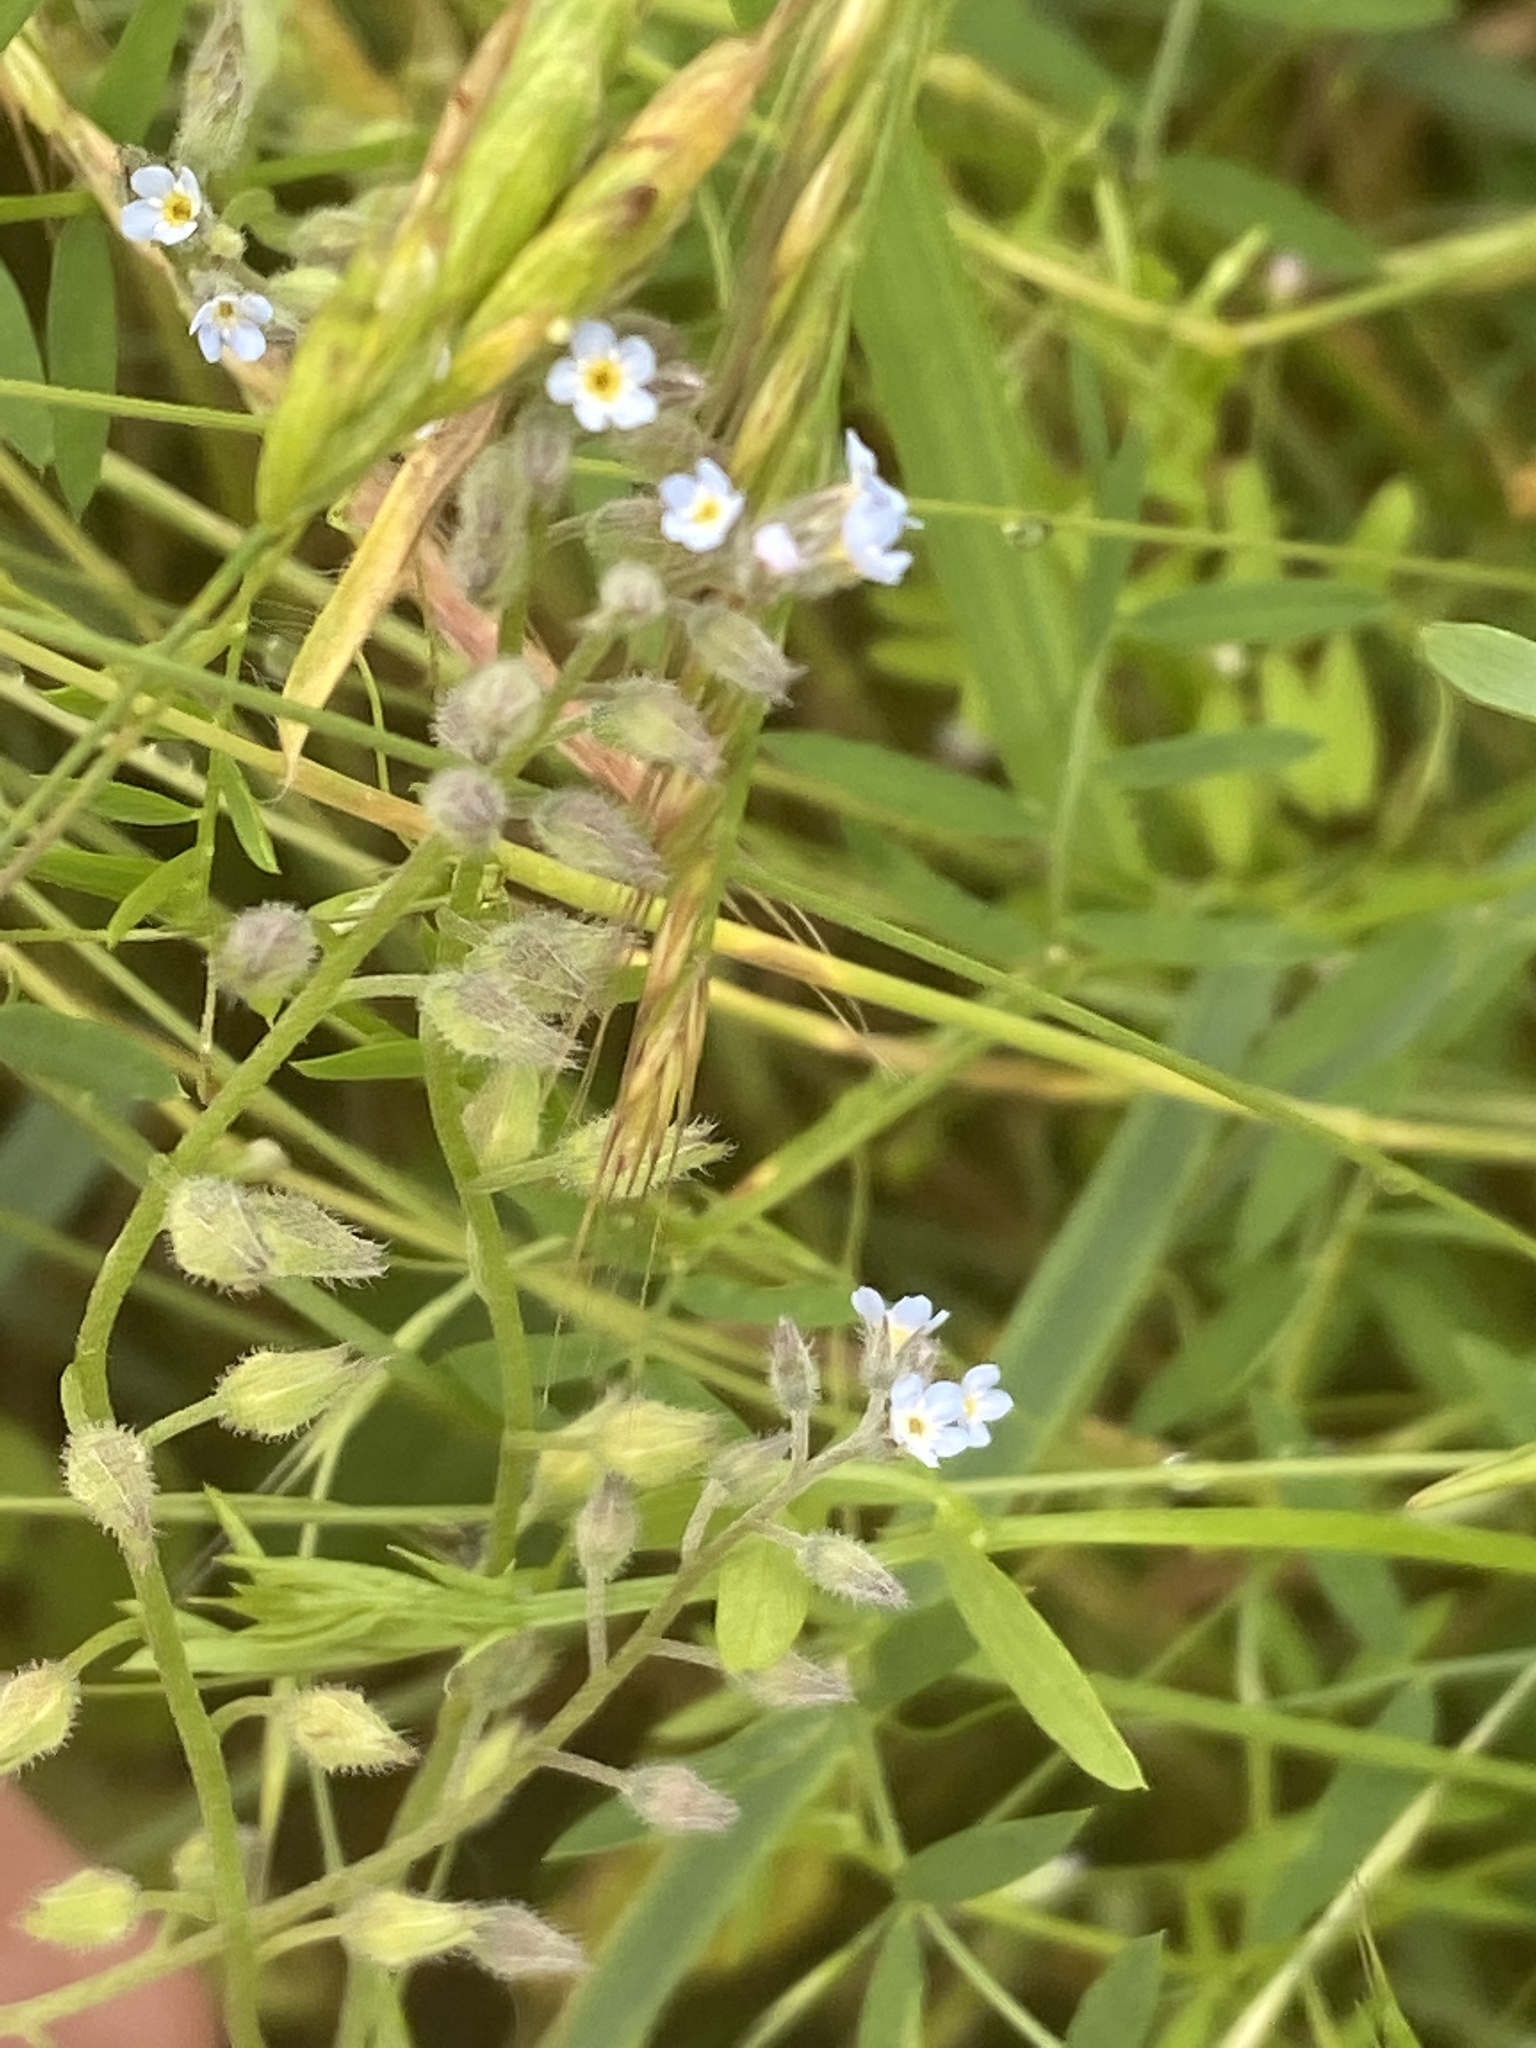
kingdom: Plantae
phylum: Tracheophyta
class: Magnoliopsida
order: Boraginales
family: Boraginaceae
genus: Myosotis
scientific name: Myosotis arvensis
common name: Field forget-me-not
